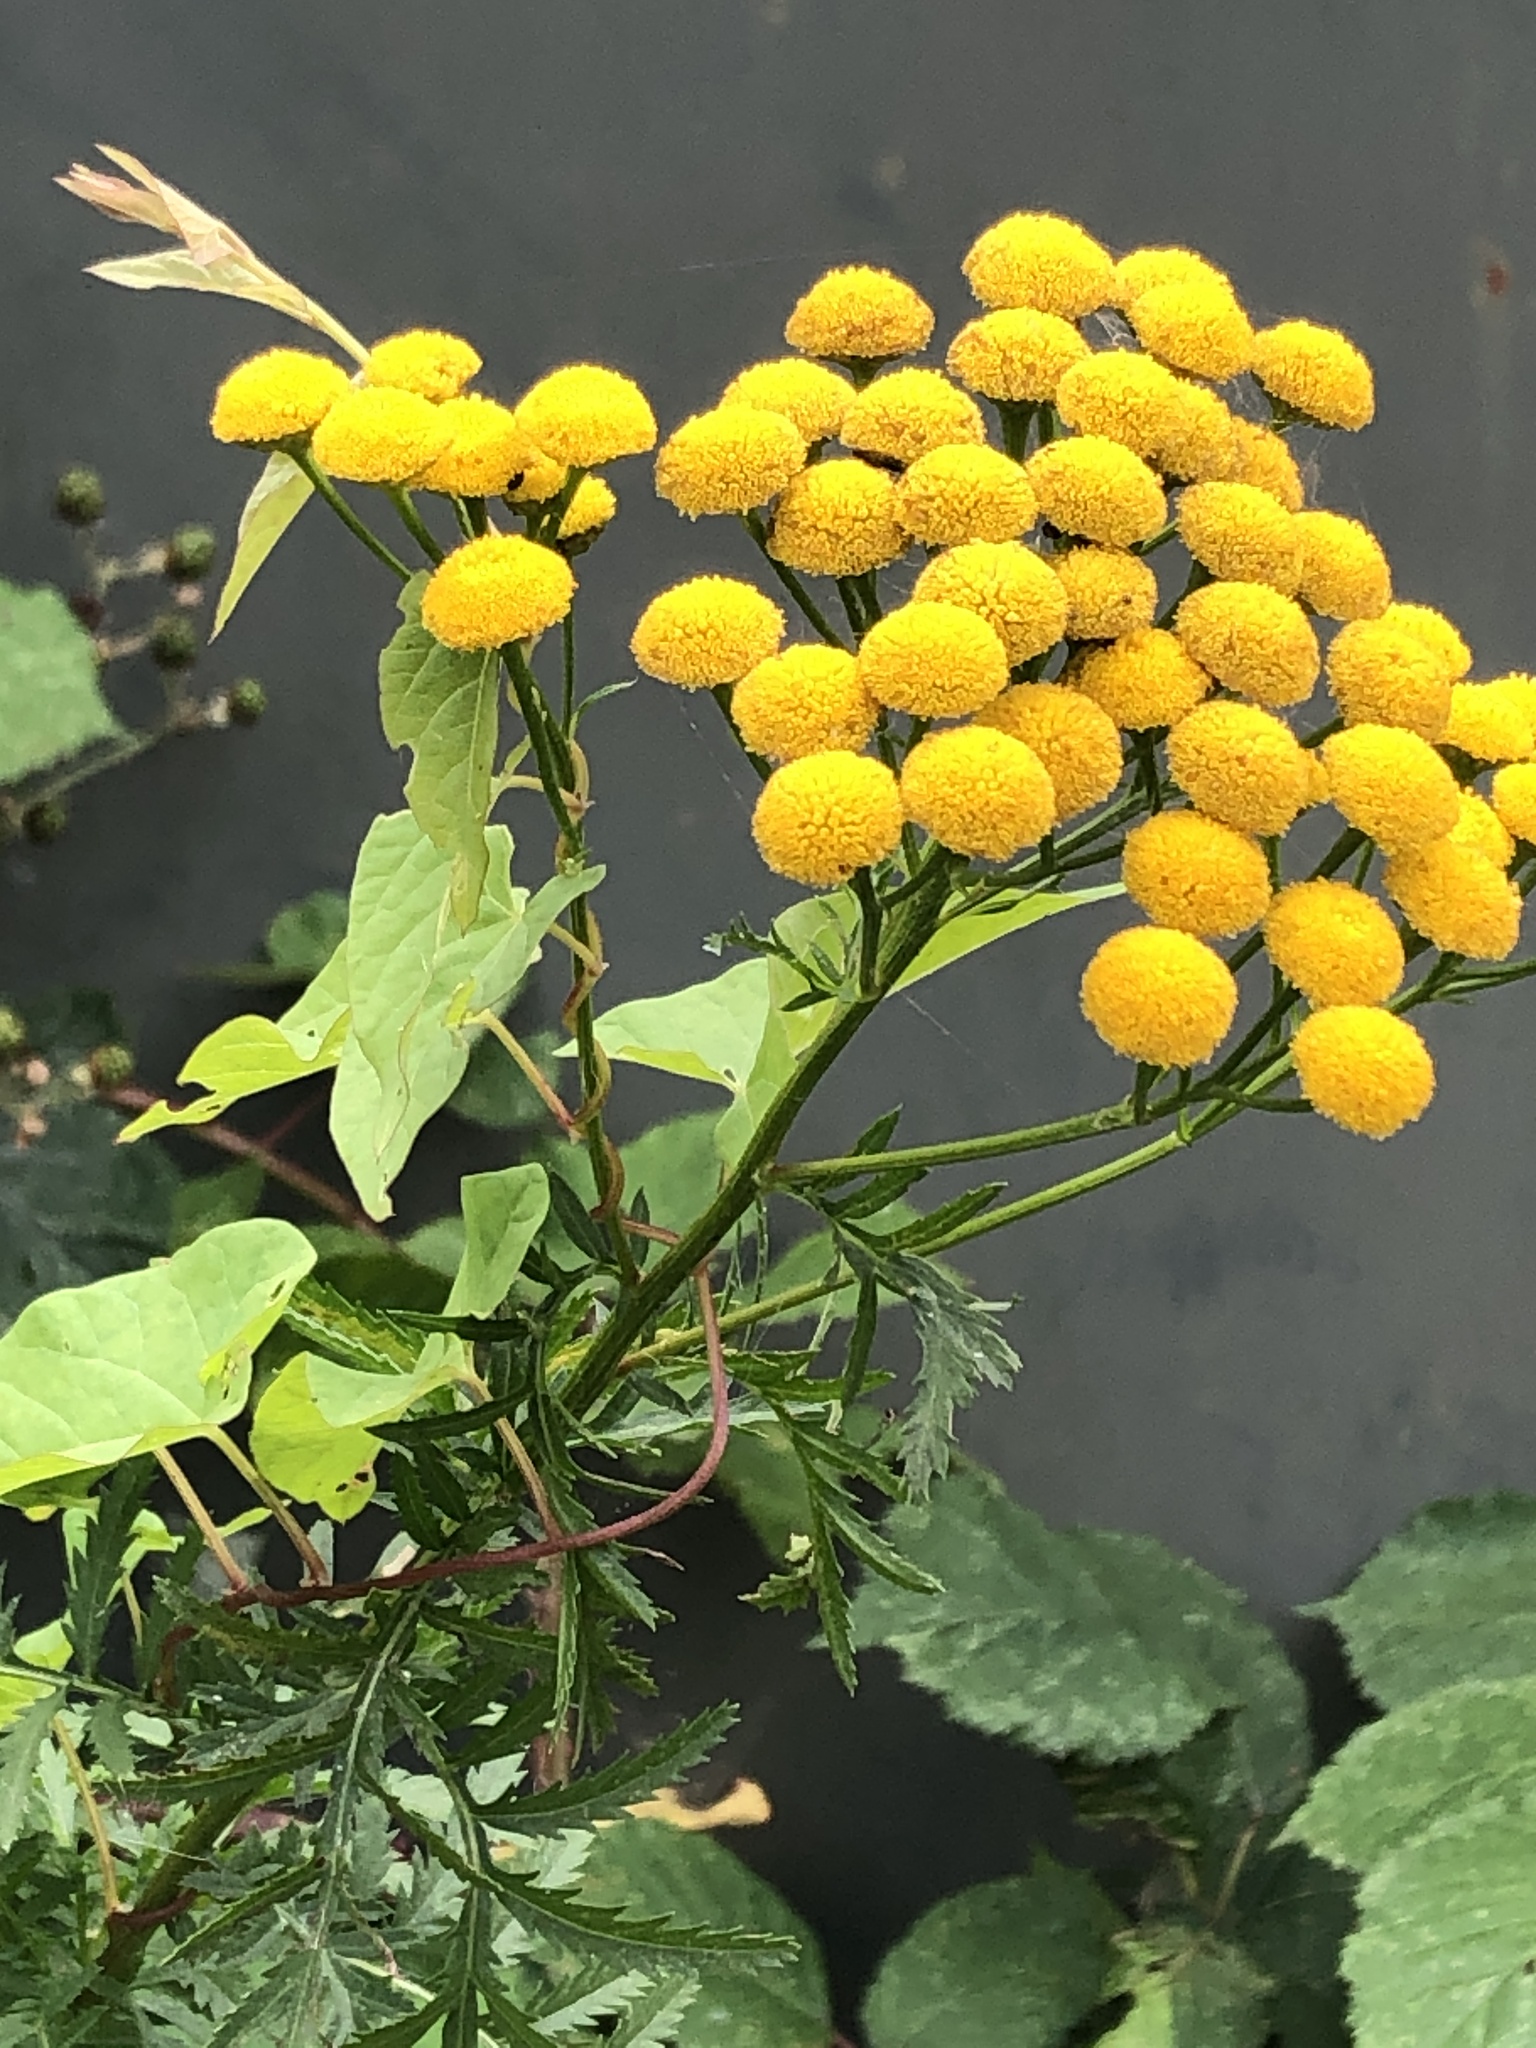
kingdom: Plantae
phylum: Tracheophyta
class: Magnoliopsida
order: Asterales
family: Asteraceae
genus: Tanacetum
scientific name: Tanacetum vulgare
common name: Common tansy
